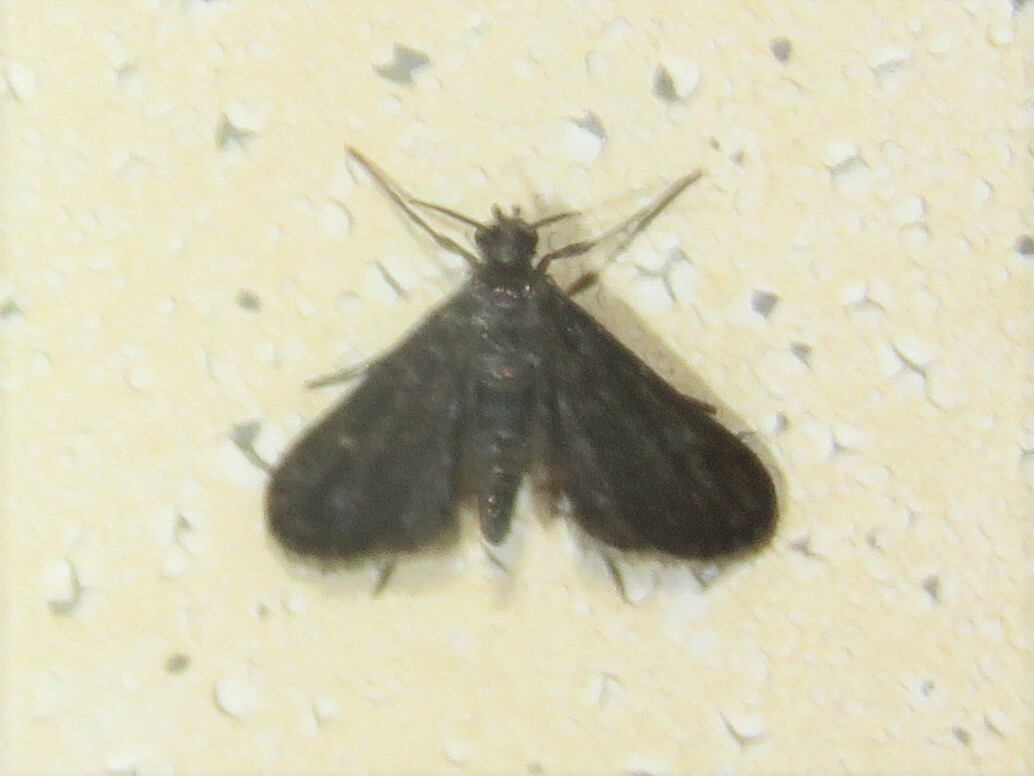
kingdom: Animalia
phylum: Arthropoda
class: Insecta
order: Lepidoptera
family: Crambidae
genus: Elophila
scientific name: Elophila tinealis
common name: Black duckweed moth
